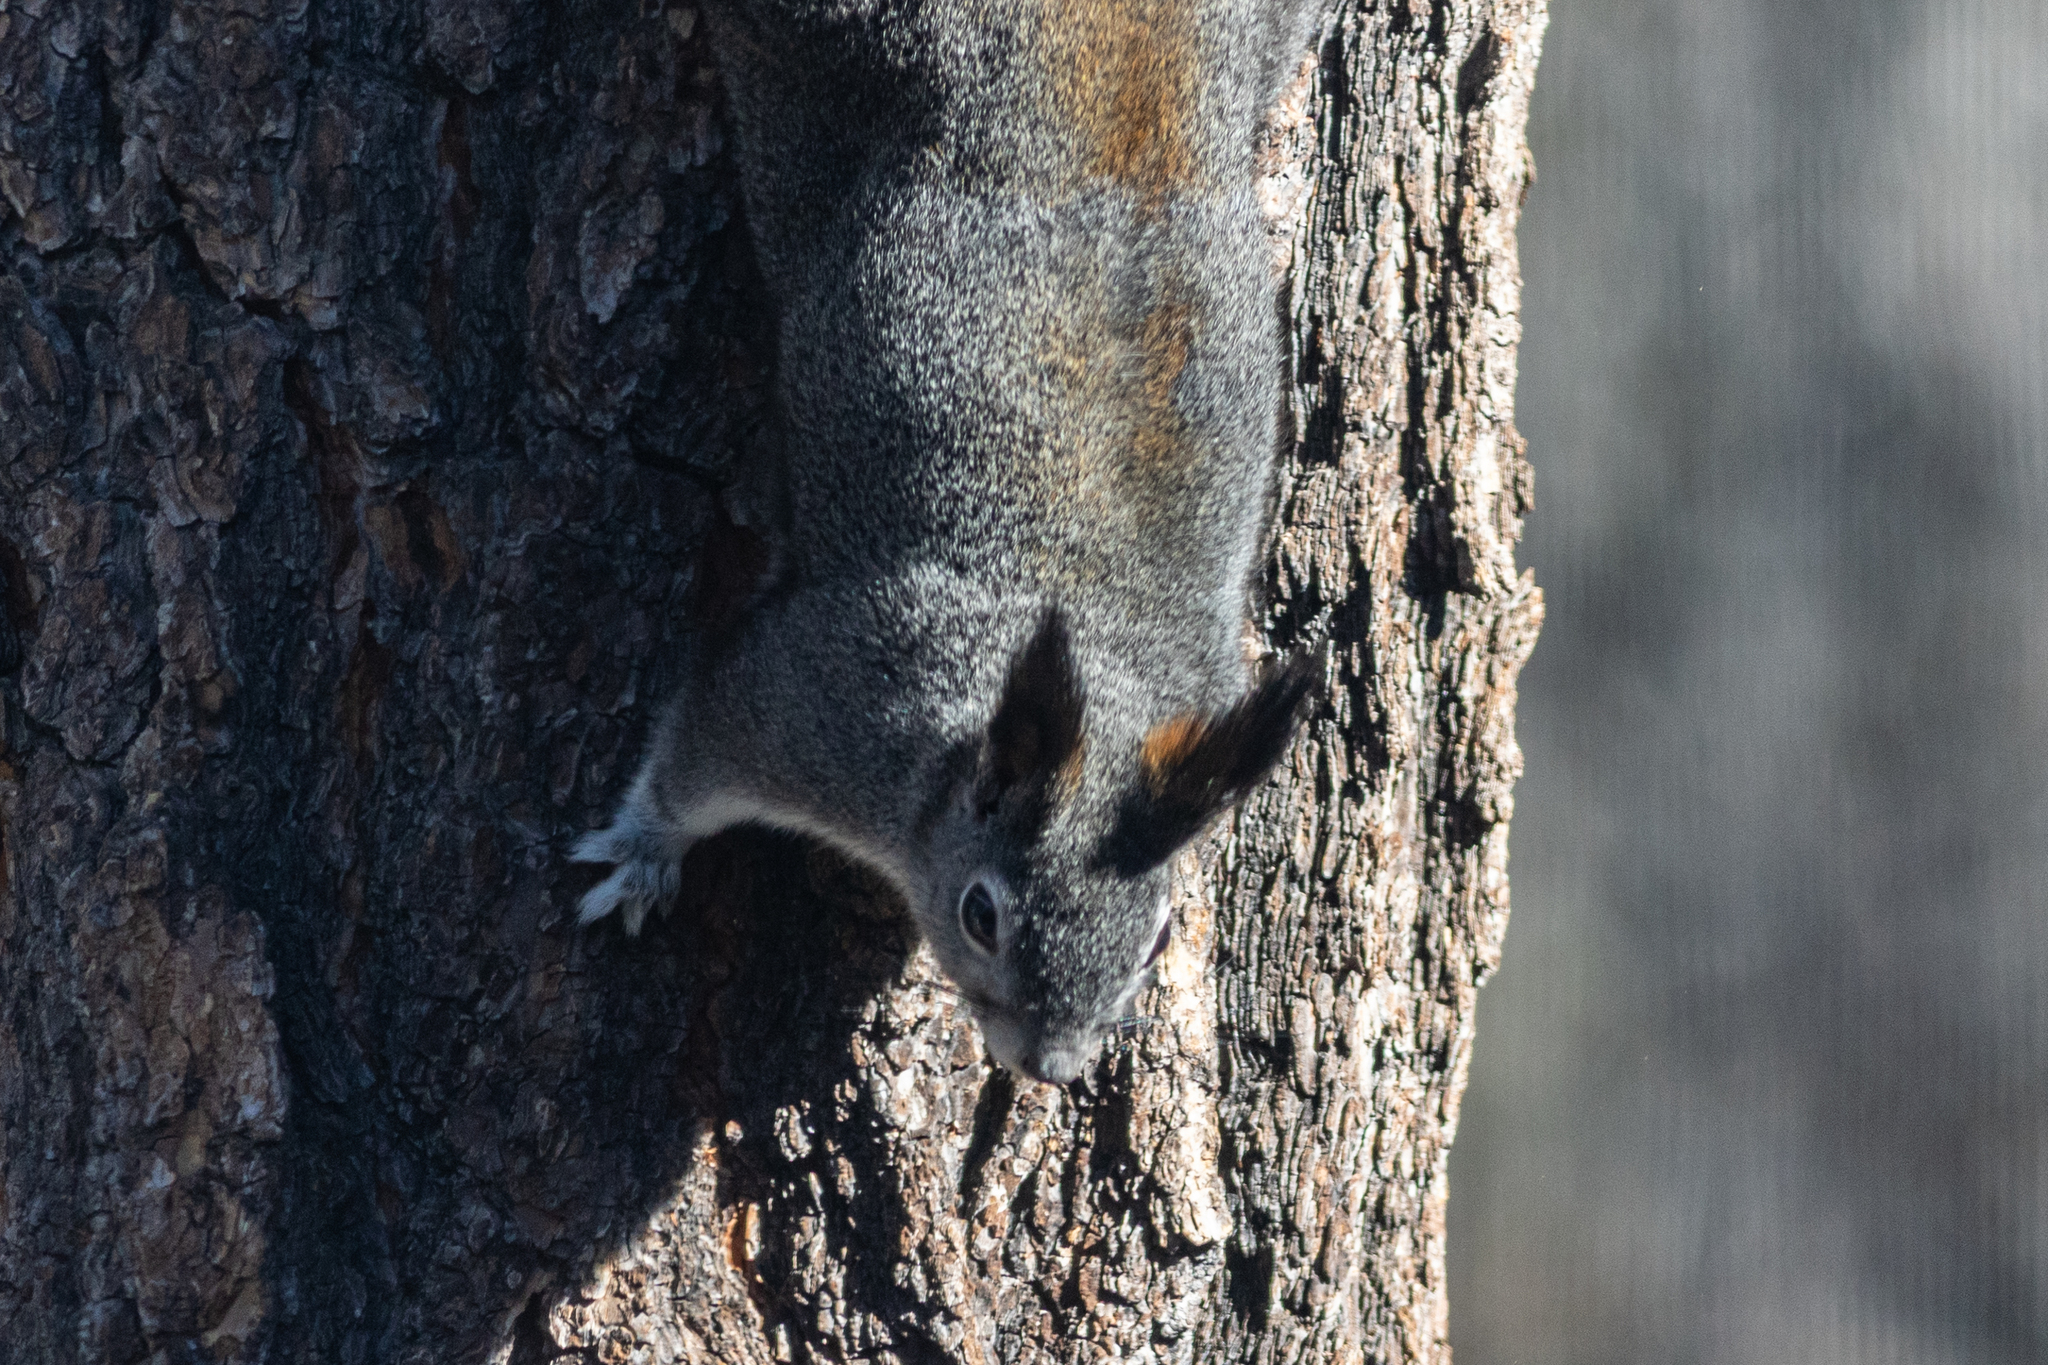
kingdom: Animalia
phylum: Chordata
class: Mammalia
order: Rodentia
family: Sciuridae
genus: Sciurus
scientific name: Sciurus aberti
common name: Abert's squirrel
